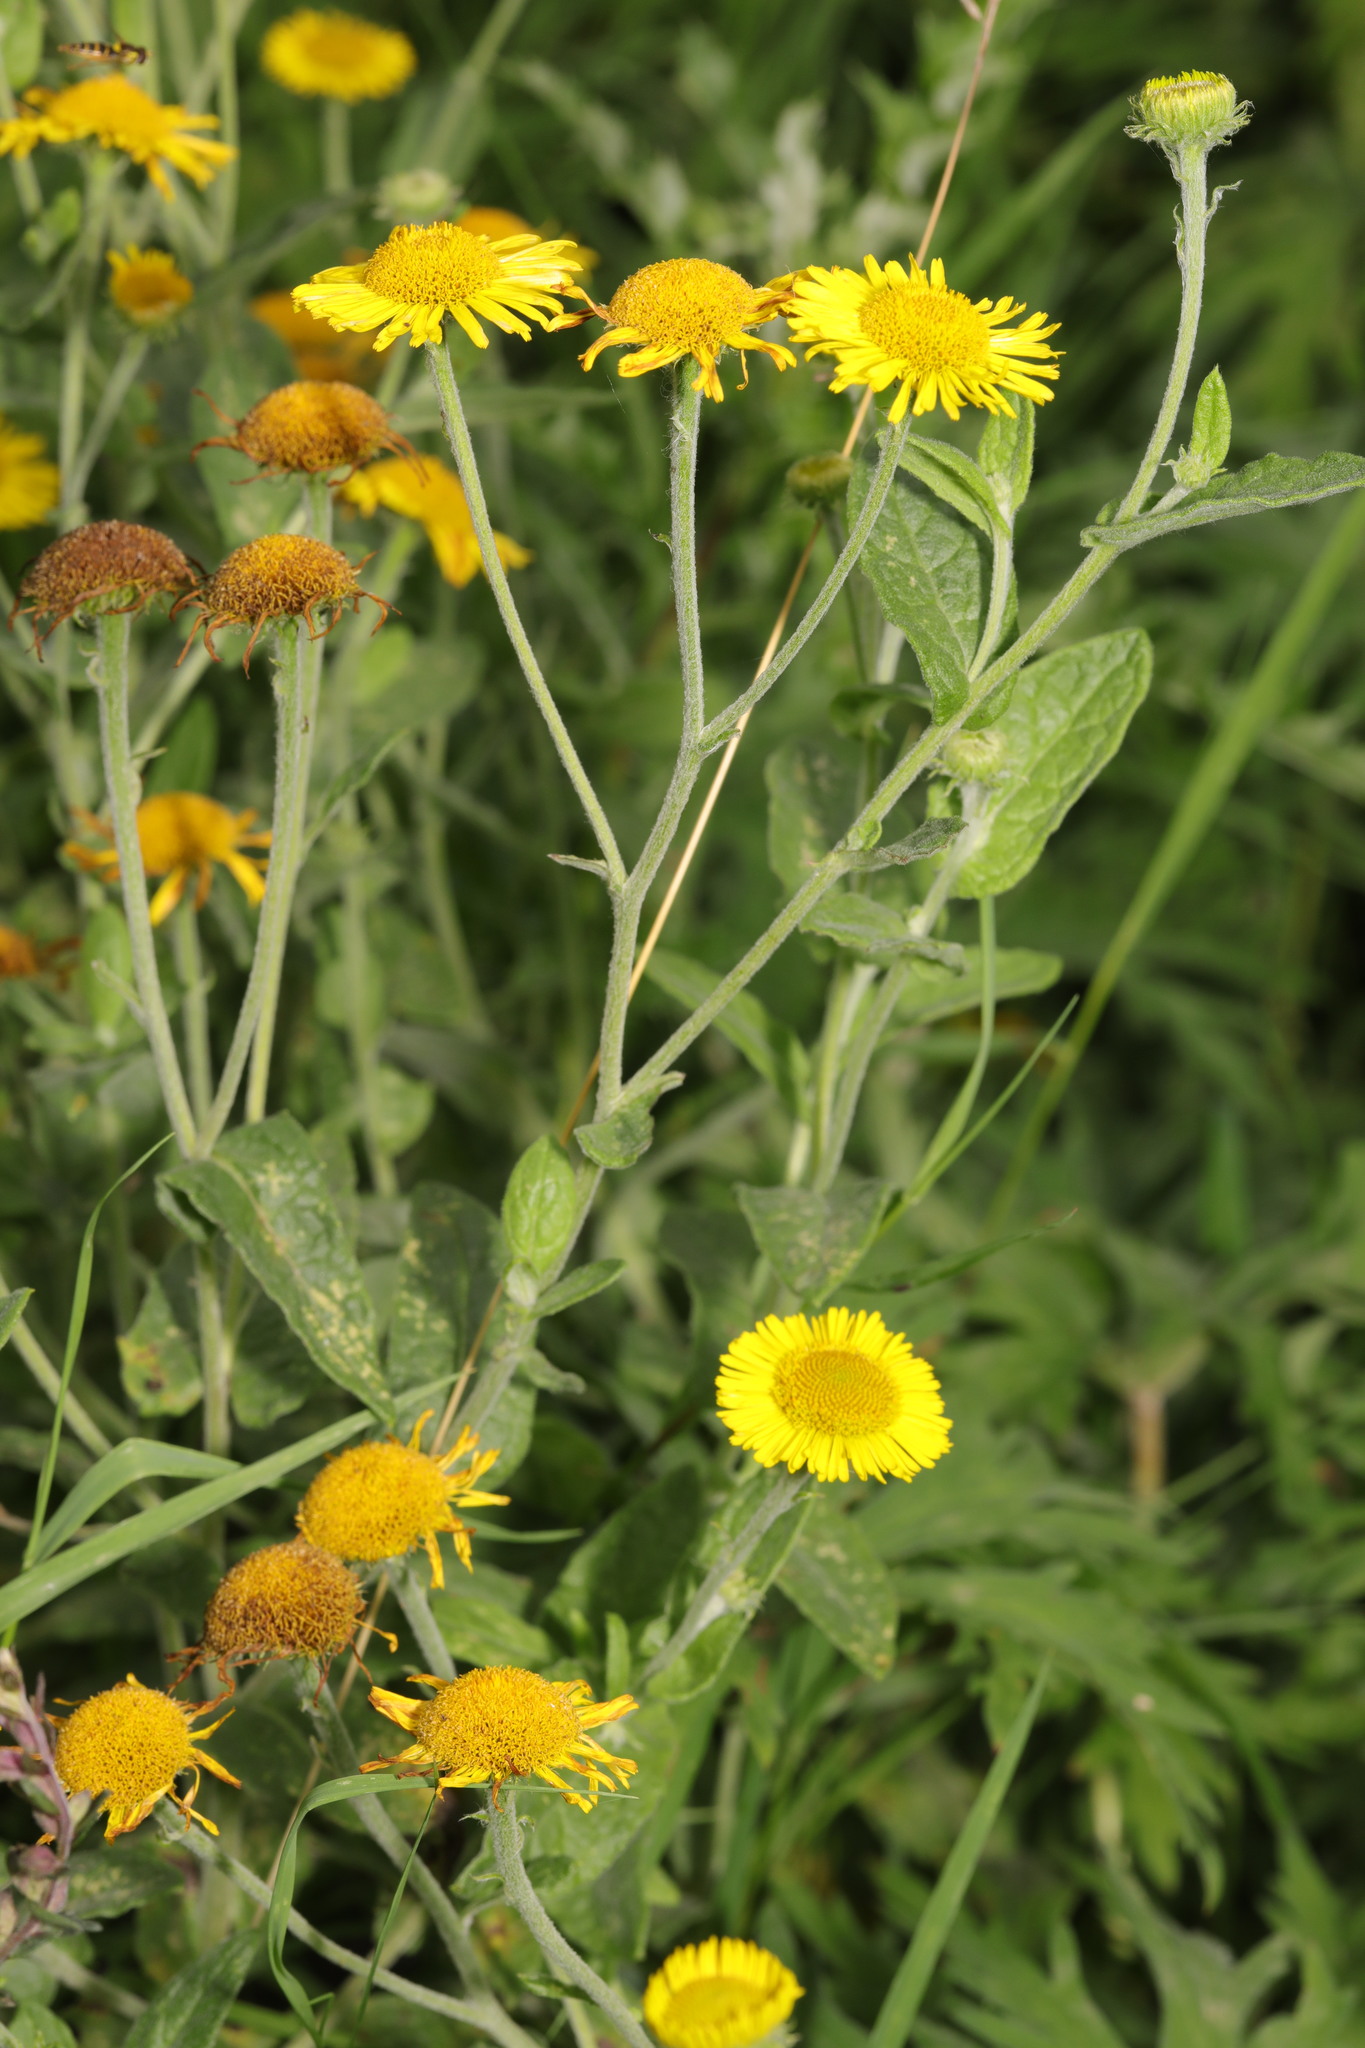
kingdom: Plantae
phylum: Tracheophyta
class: Magnoliopsida
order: Asterales
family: Asteraceae
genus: Pulicaria
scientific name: Pulicaria dysenterica
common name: Common fleabane
